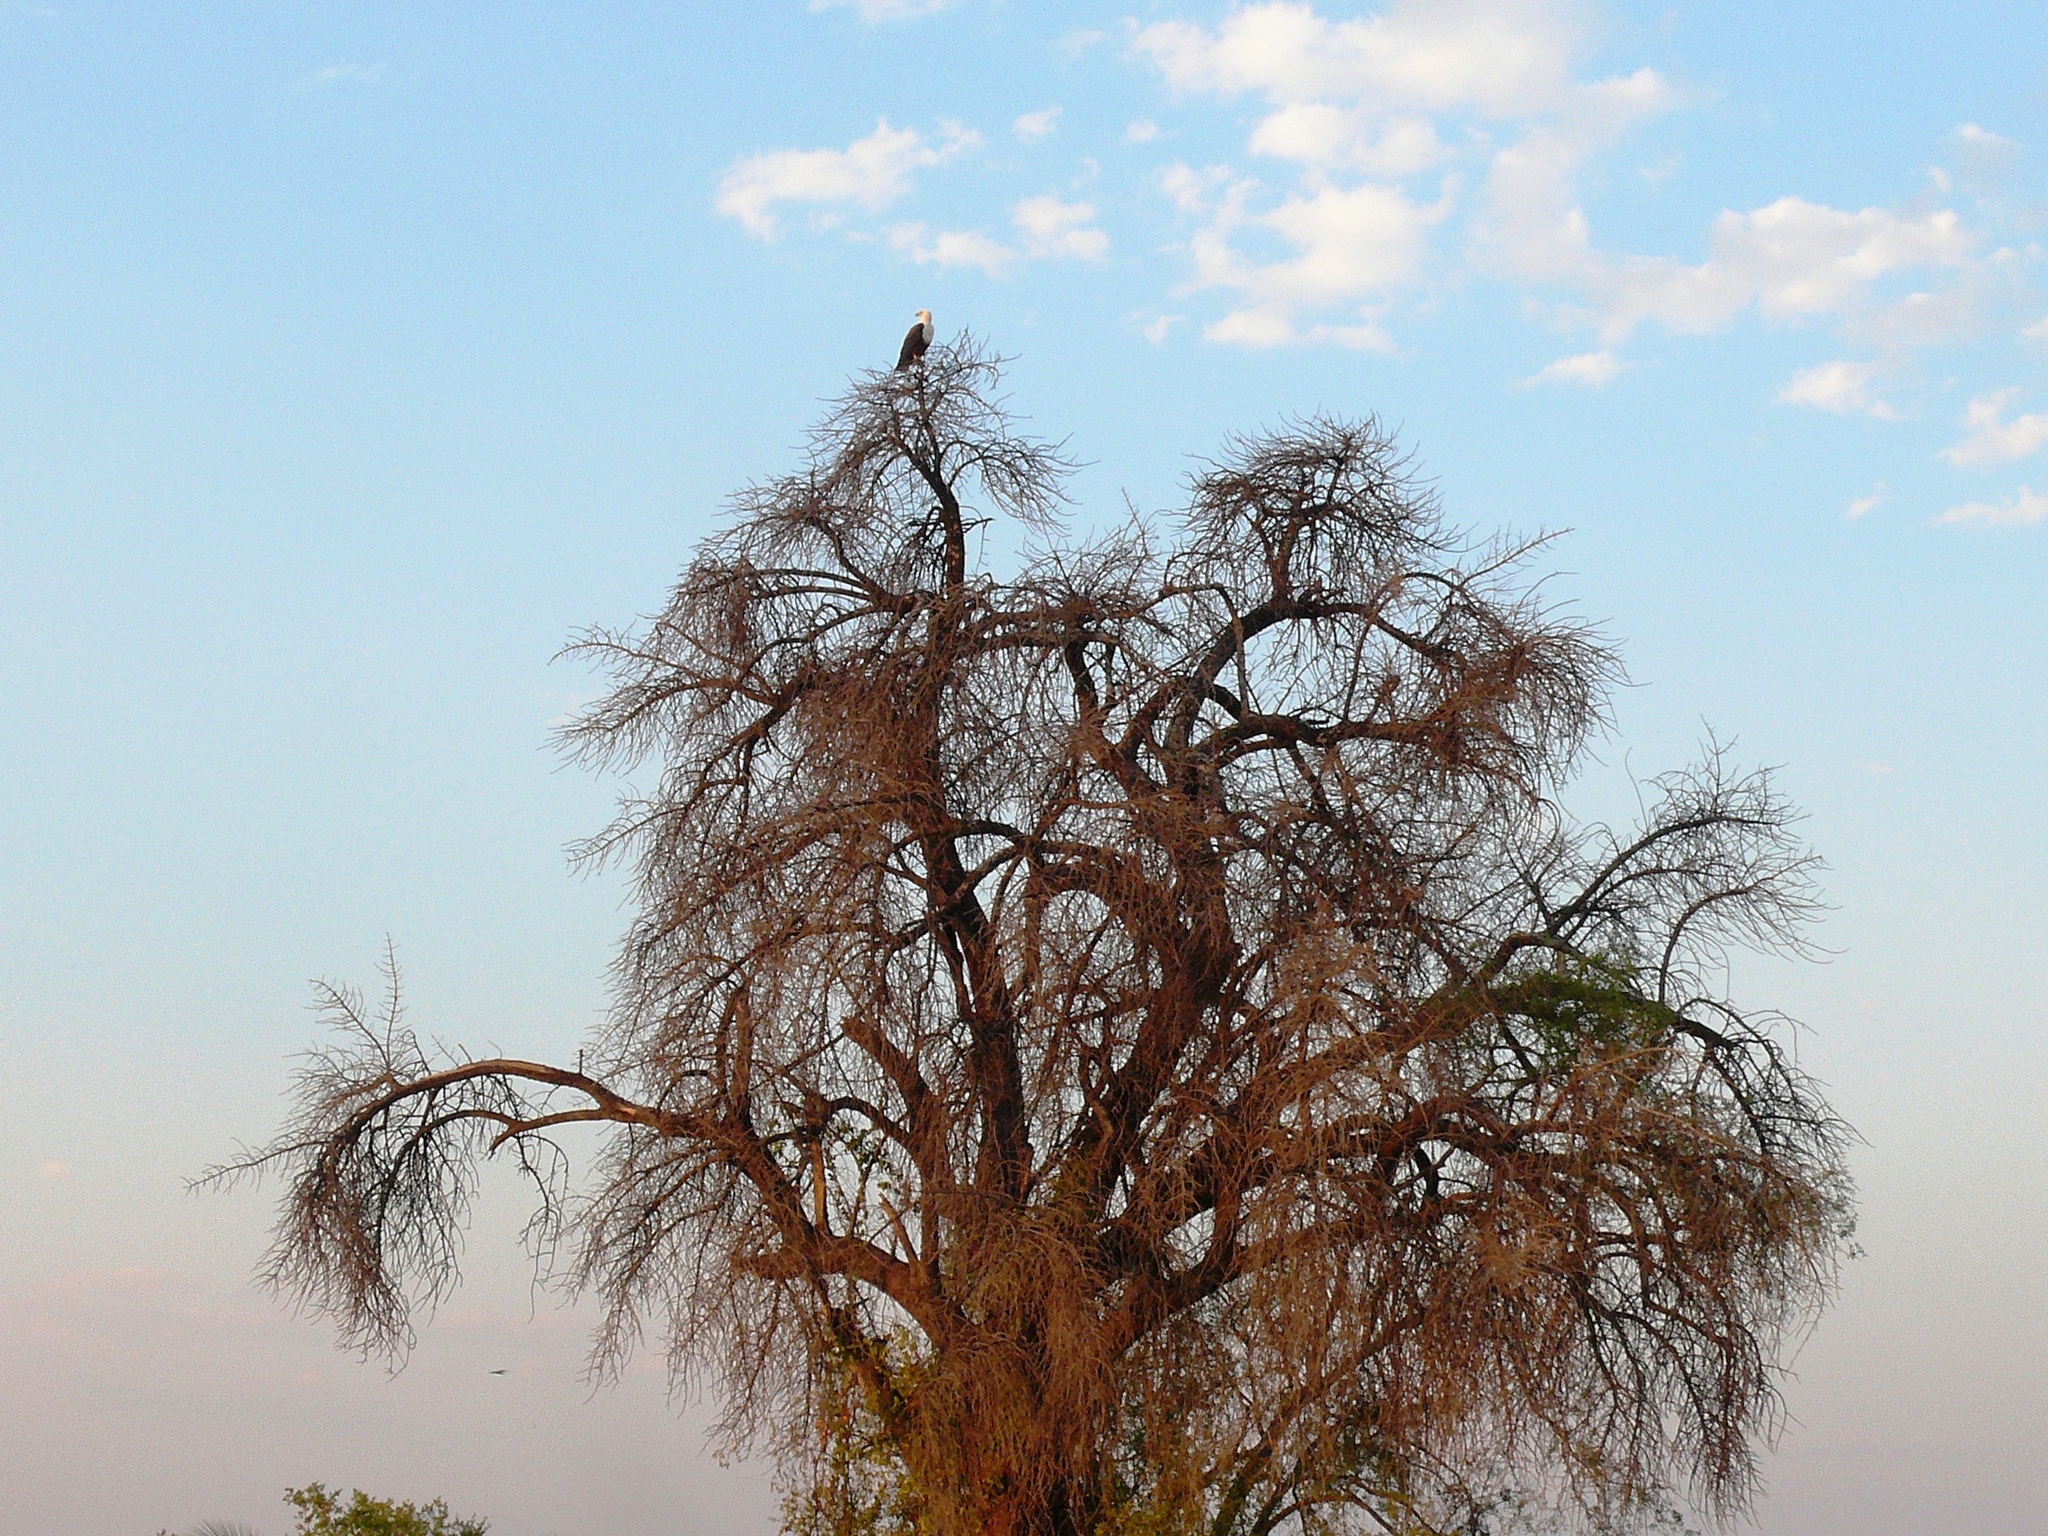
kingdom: Animalia
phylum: Chordata
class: Aves
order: Accipitriformes
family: Accipitridae
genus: Haliaeetus
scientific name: Haliaeetus vocifer
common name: African fish eagle
